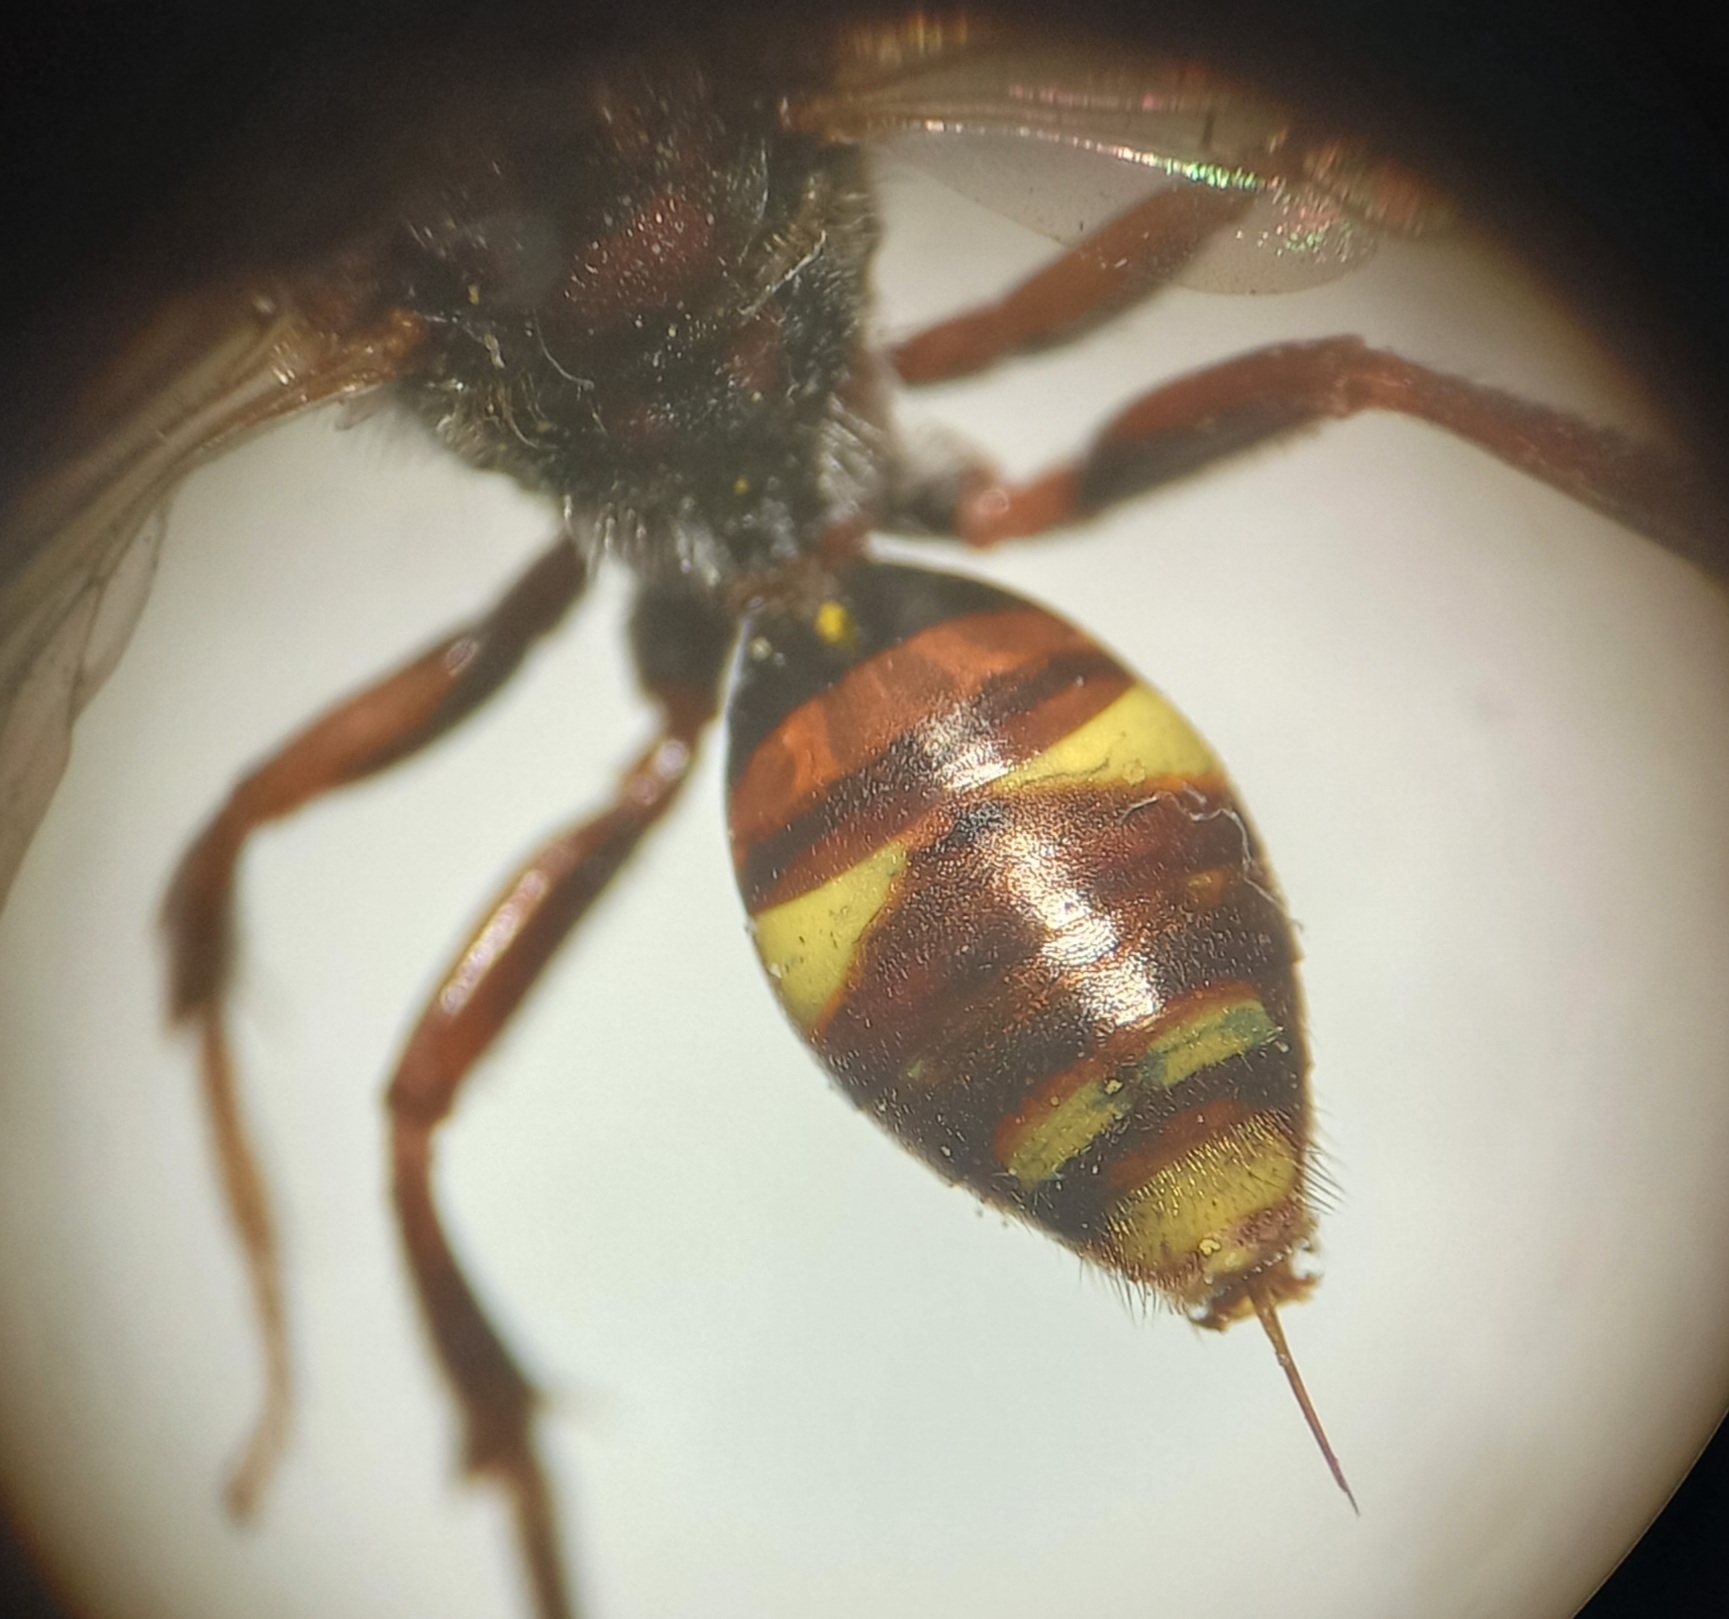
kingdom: Animalia
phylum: Arthropoda
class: Insecta
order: Hymenoptera
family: Apidae
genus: Nomada
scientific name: Nomada ruficornis
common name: Fork-jawed nomad bee
